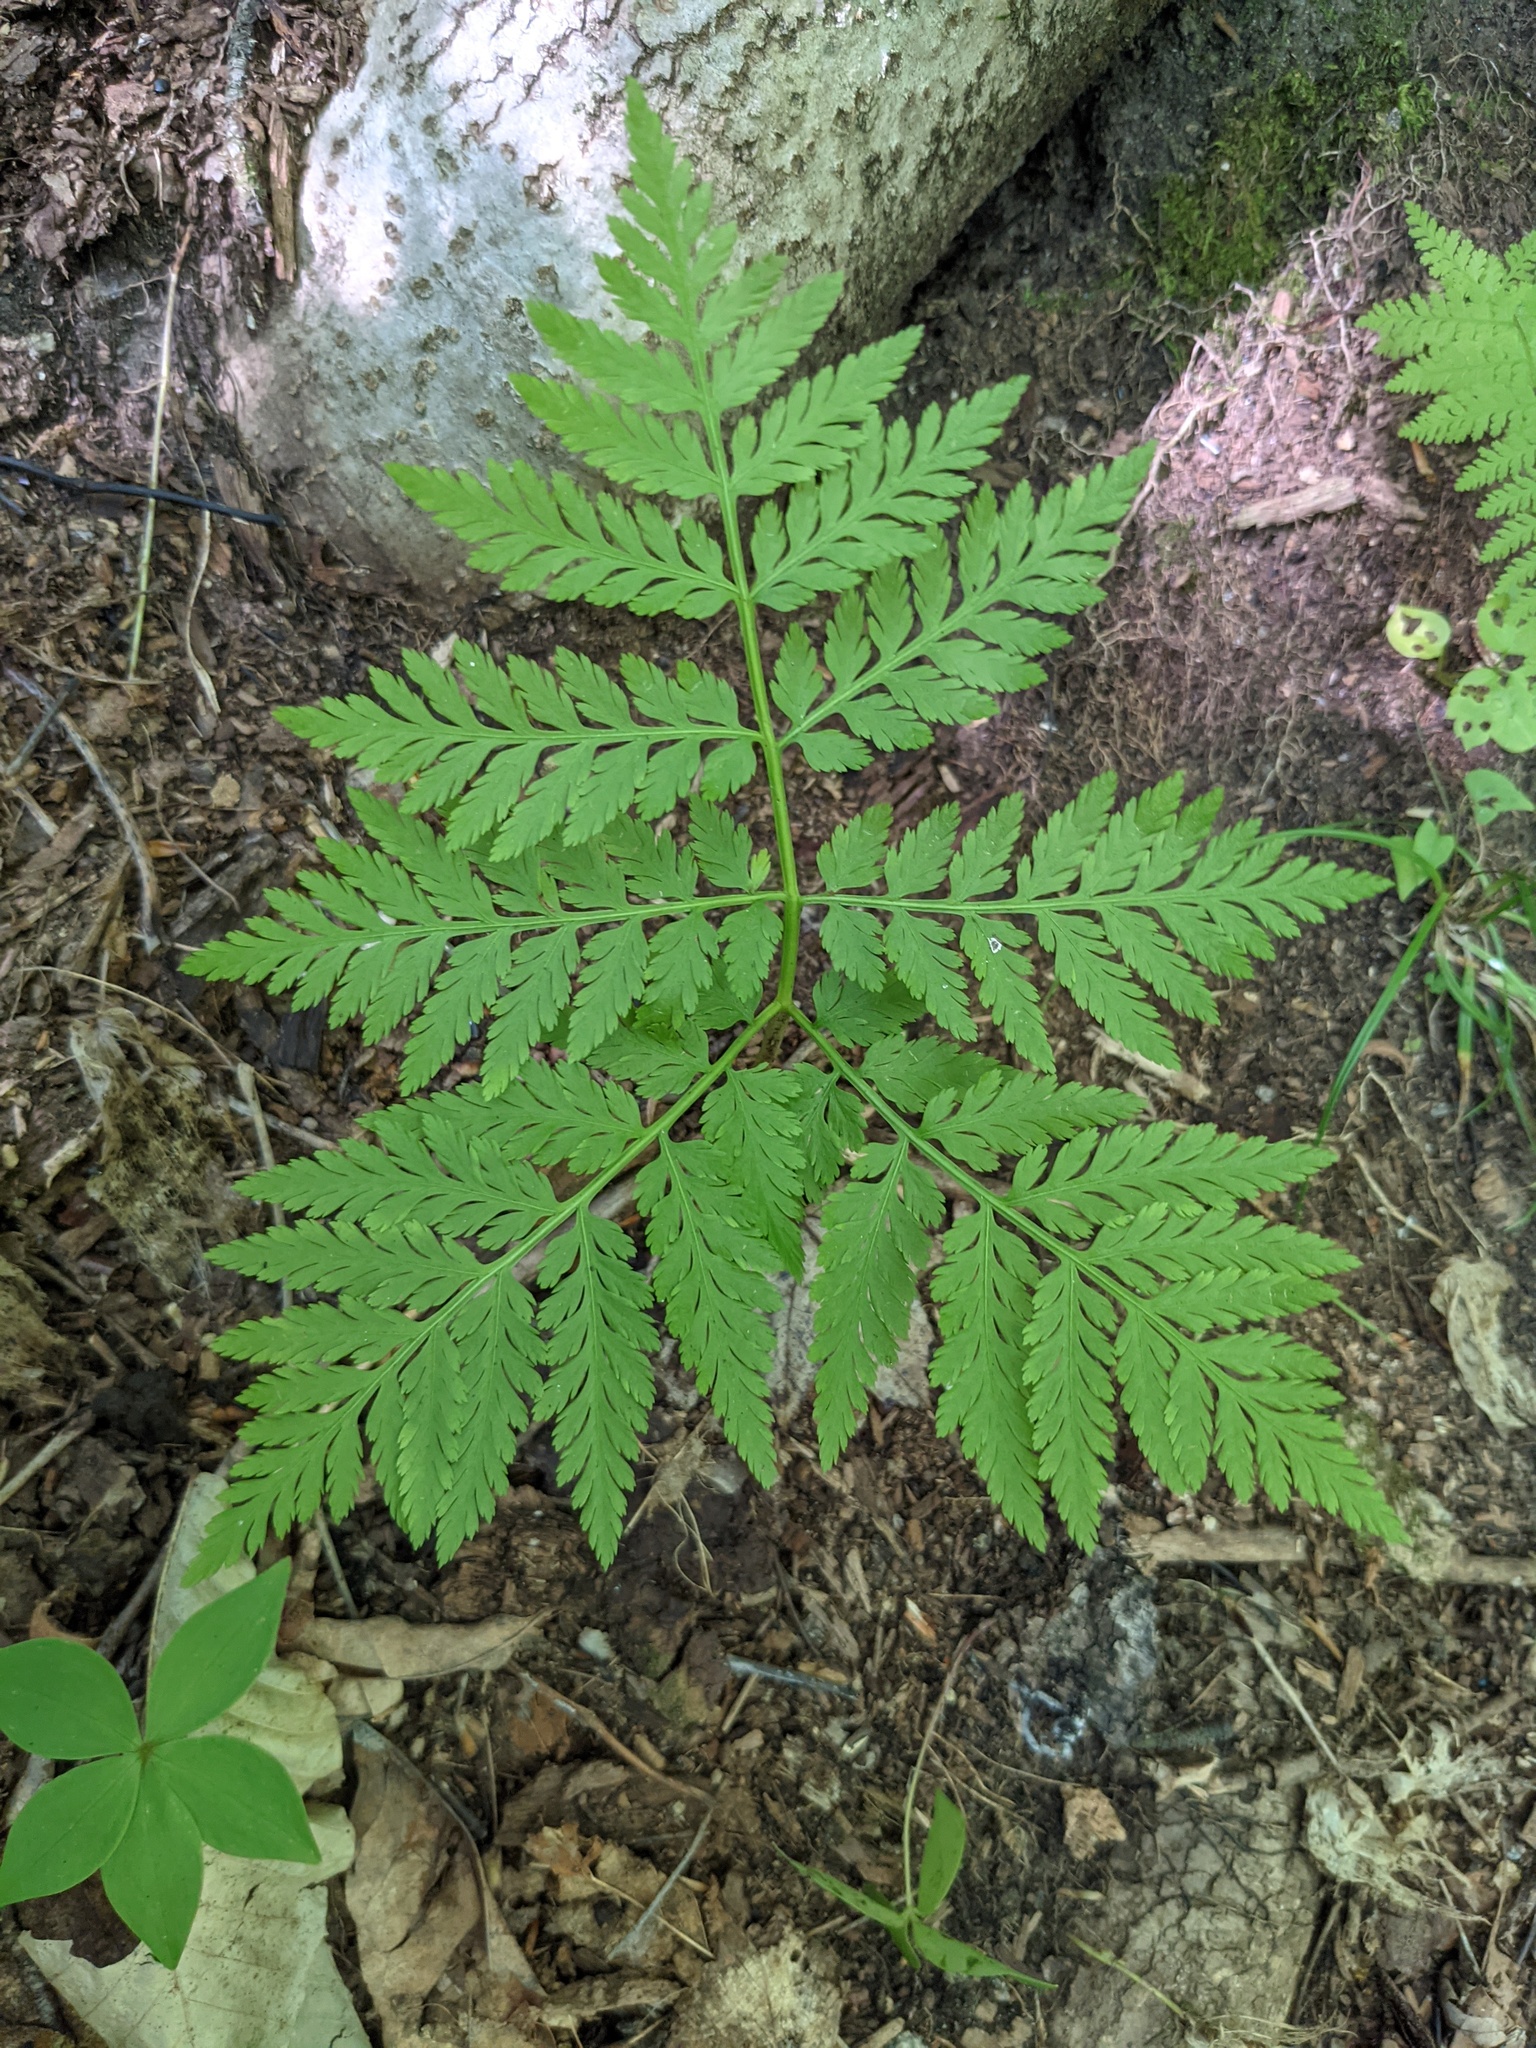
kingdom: Plantae
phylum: Tracheophyta
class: Polypodiopsida
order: Ophioglossales
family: Ophioglossaceae
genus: Botrypus
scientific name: Botrypus virginianus
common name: Common grapefern
